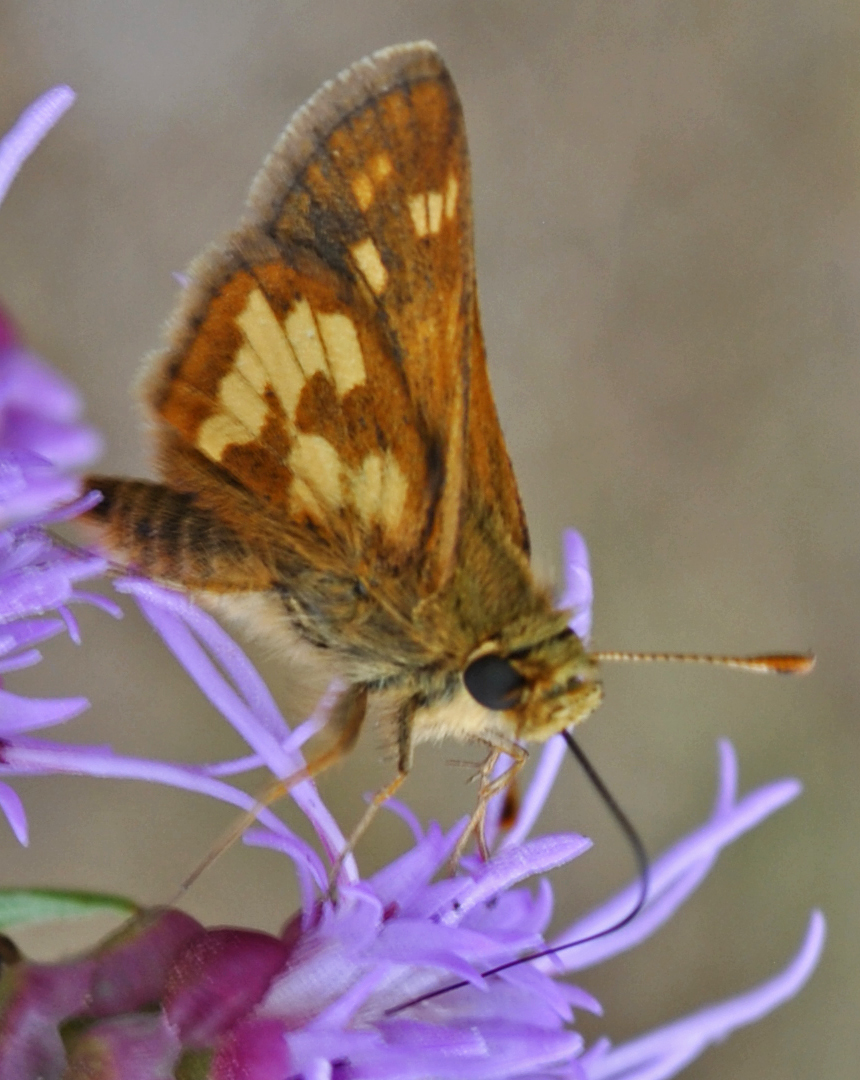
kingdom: Animalia
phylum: Arthropoda
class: Insecta
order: Lepidoptera
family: Hesperiidae
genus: Polites
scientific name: Polites coras
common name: Peck's skipper
